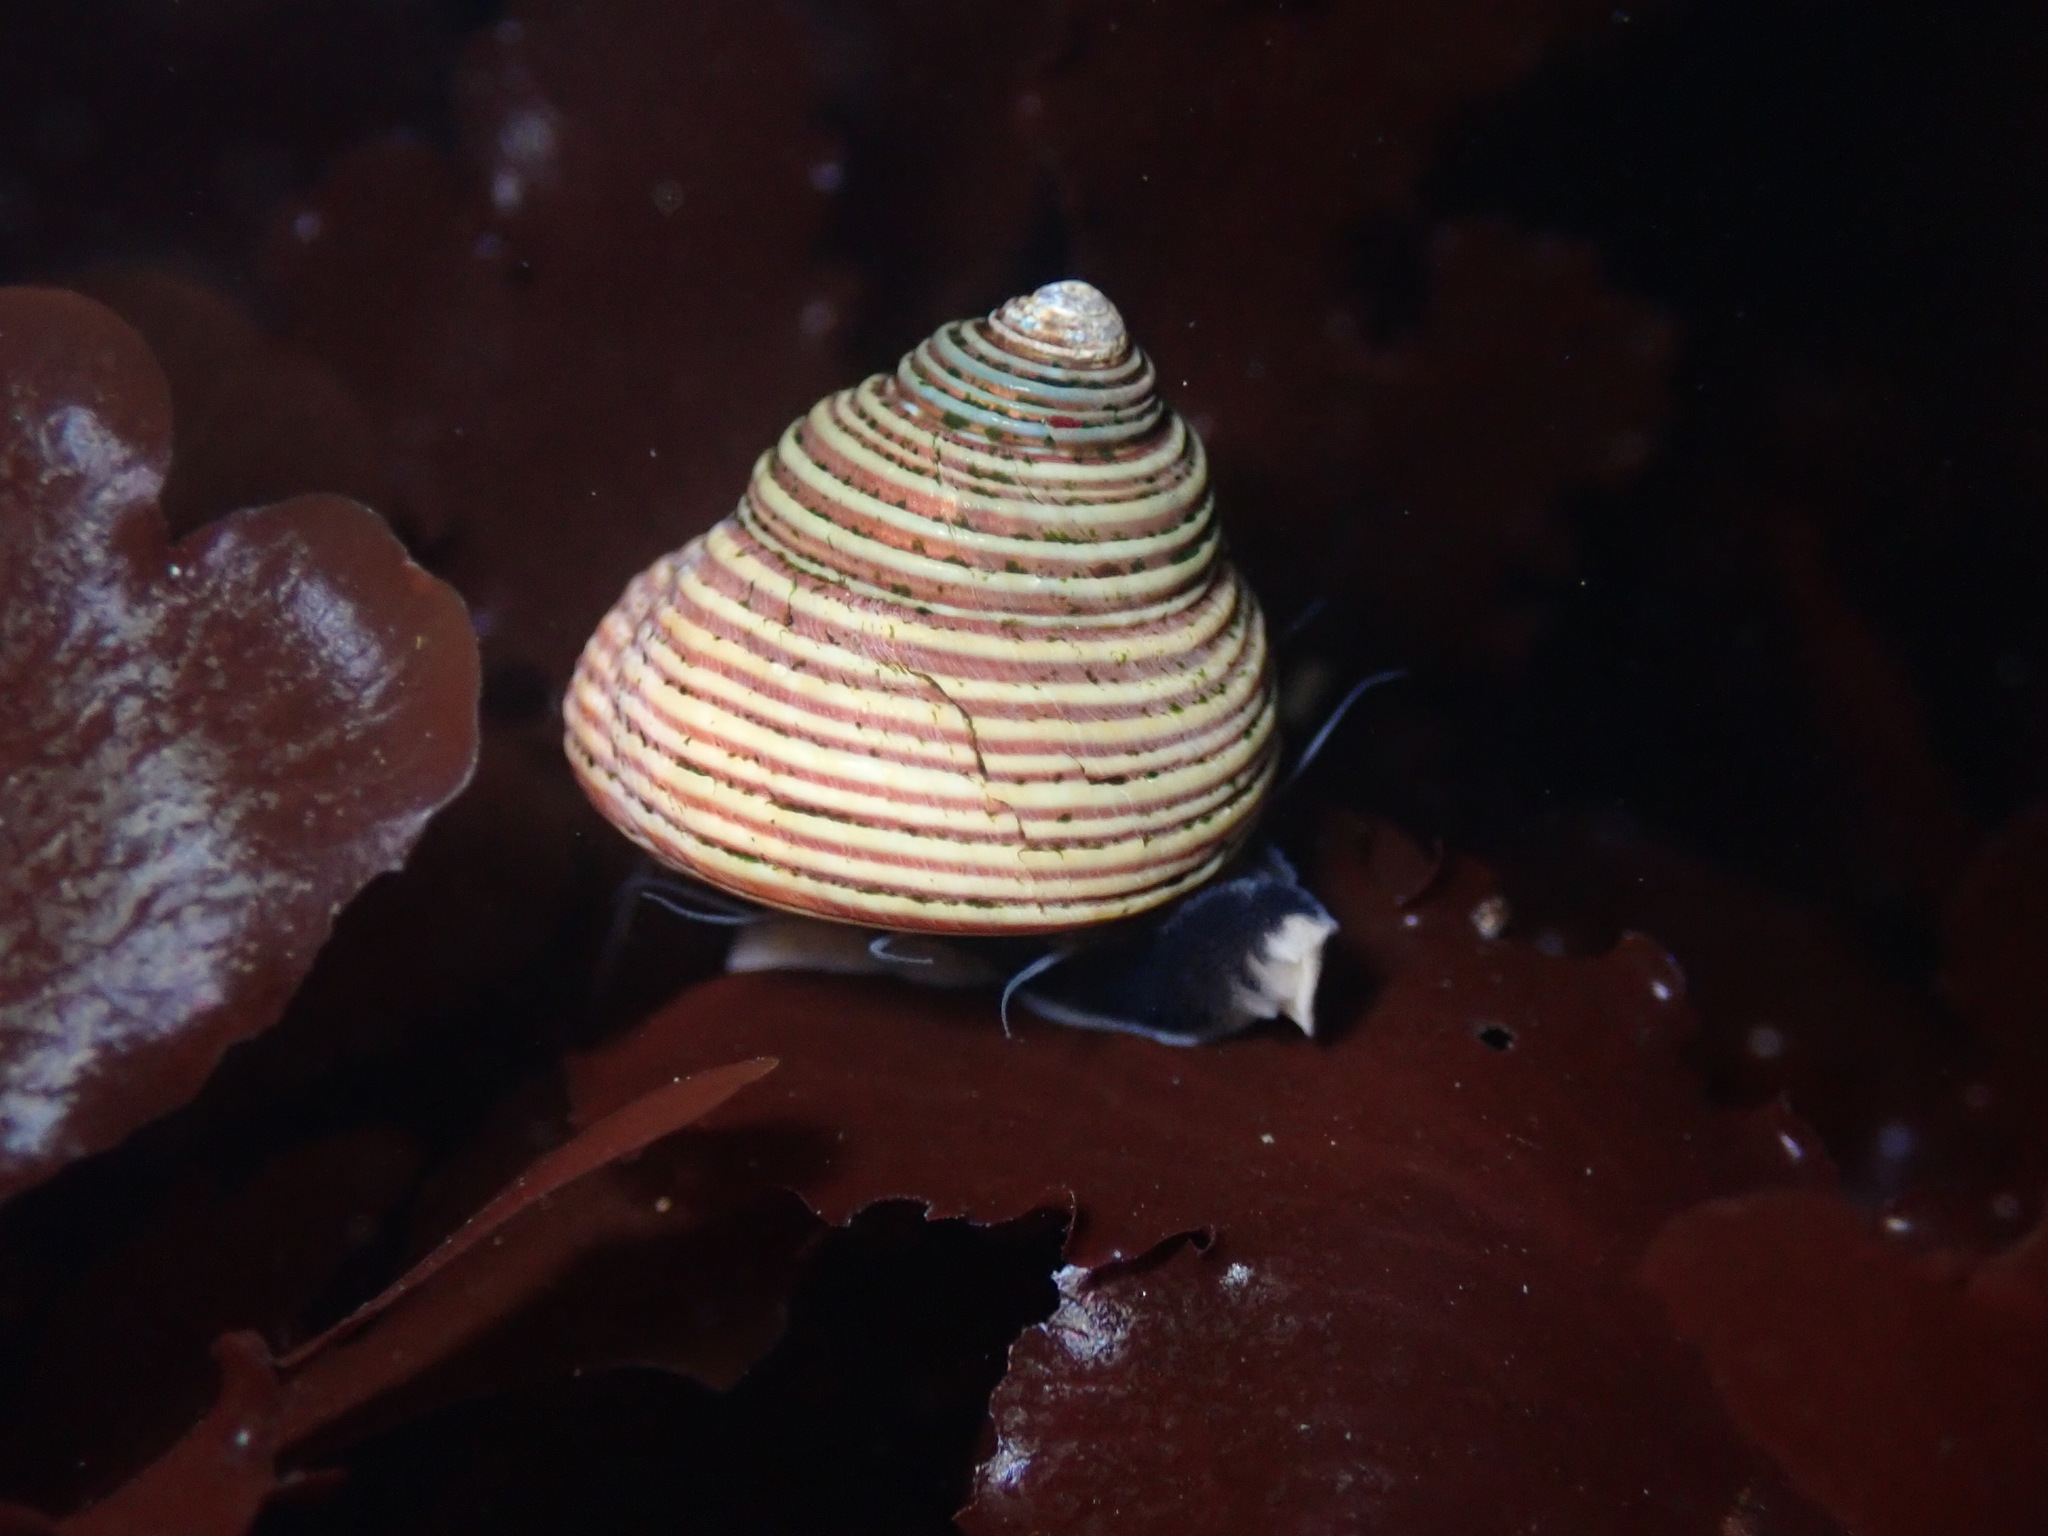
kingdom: Animalia
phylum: Mollusca
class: Gastropoda
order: Trochida
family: Calliostomatidae
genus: Calliostoma
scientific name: Calliostoma ligatum
